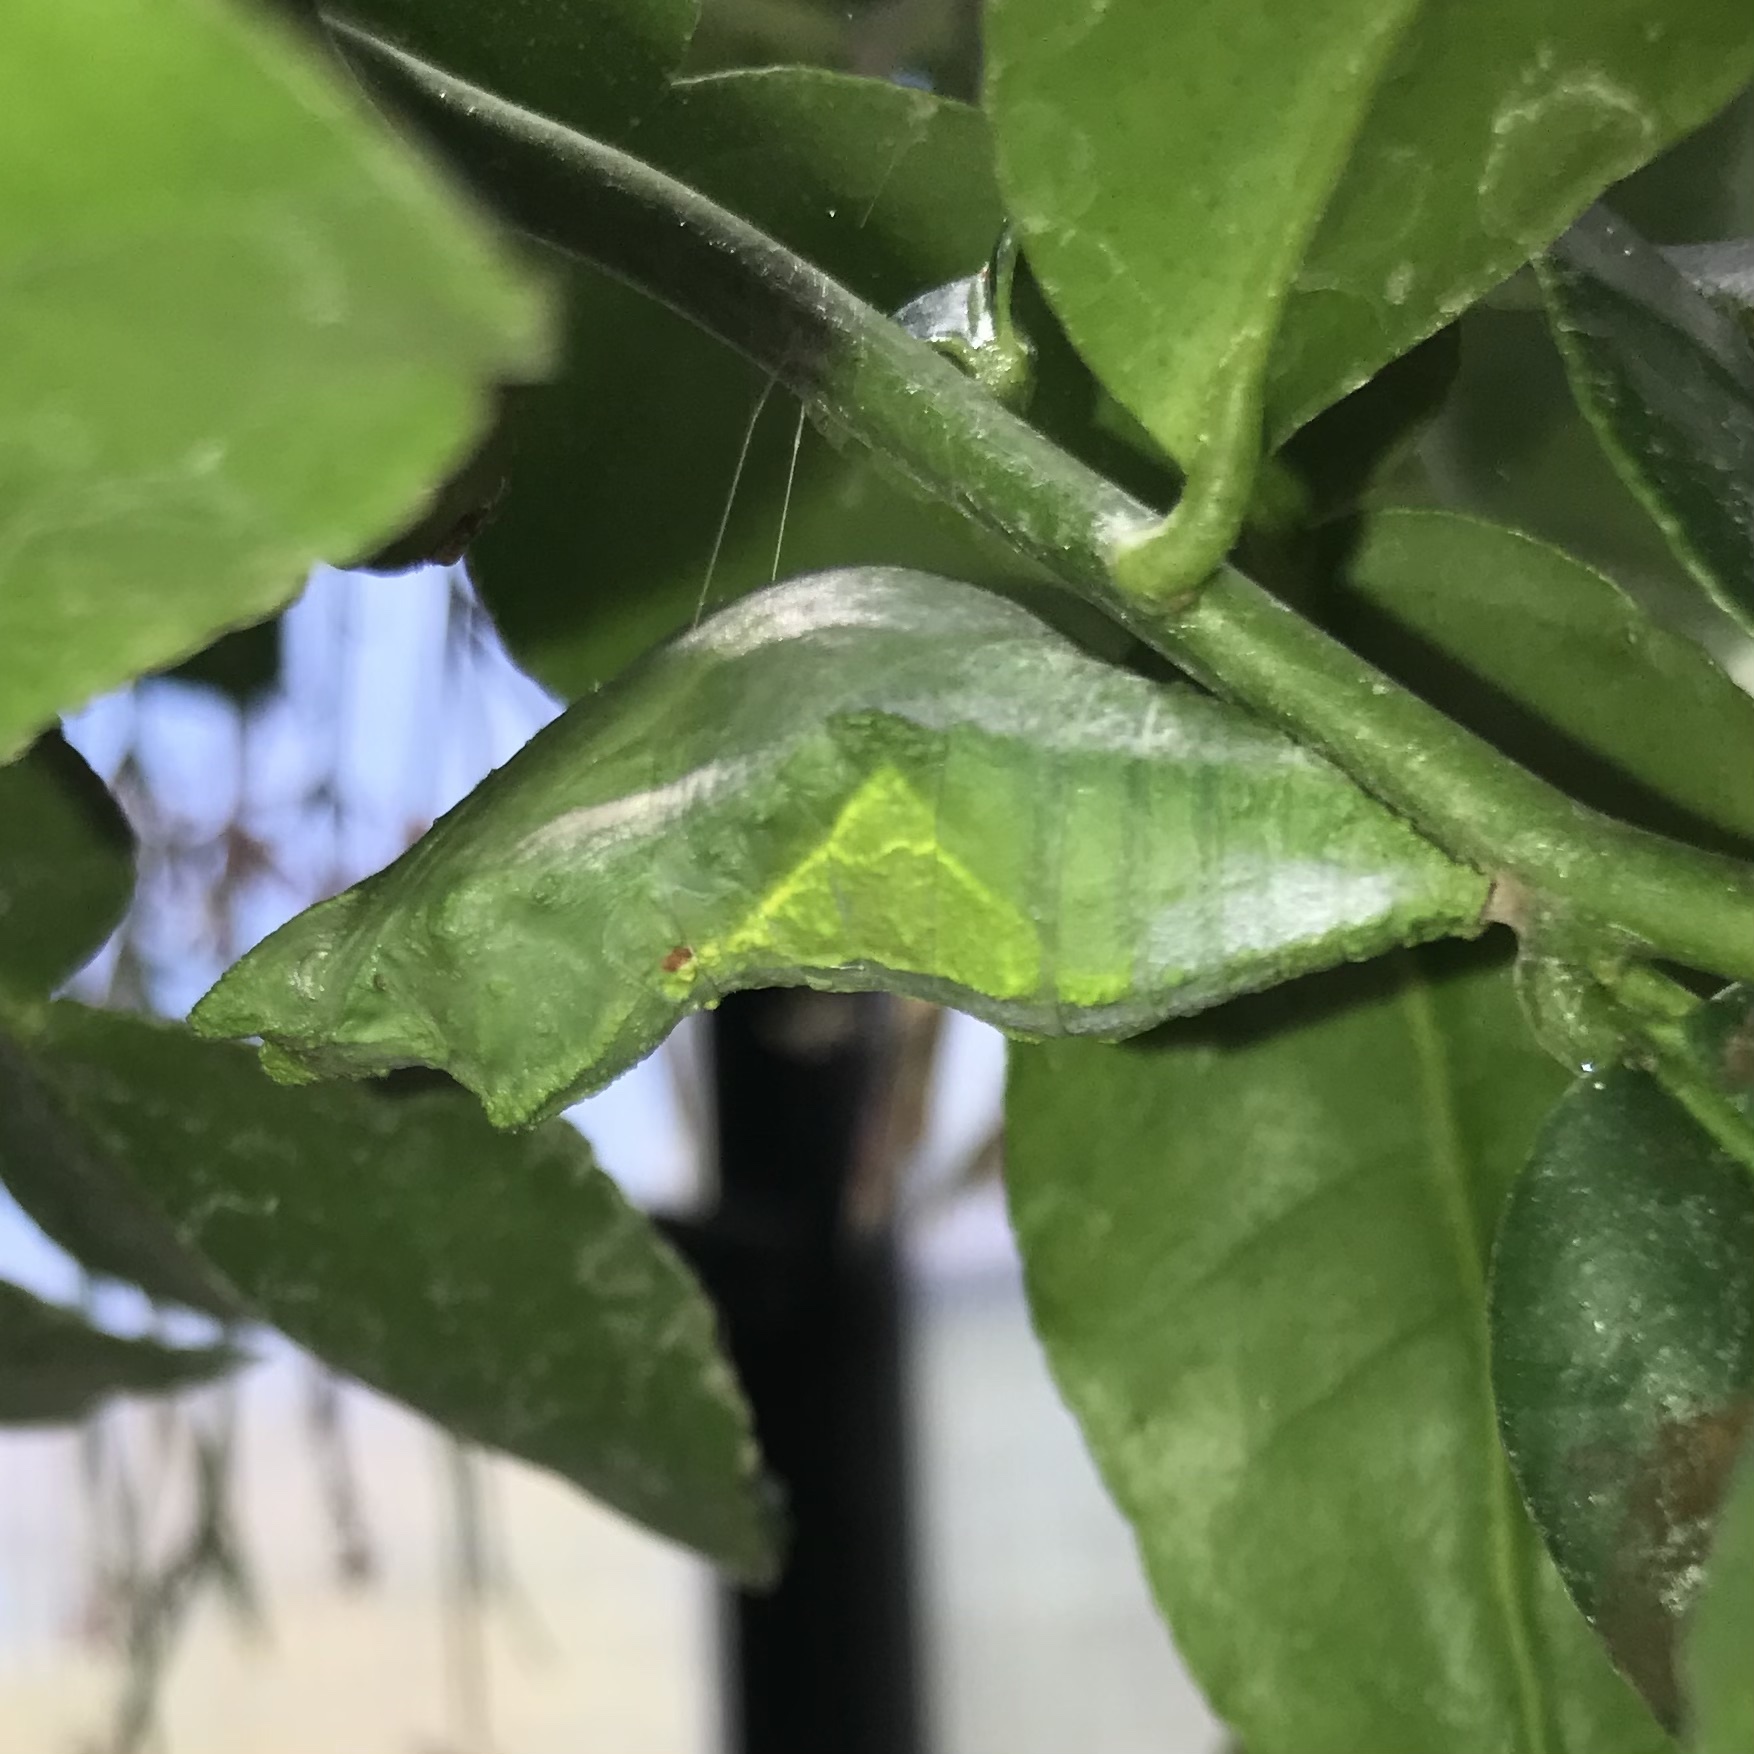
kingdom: Animalia
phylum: Arthropoda
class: Insecta
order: Lepidoptera
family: Papilionidae
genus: Papilio
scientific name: Papilio aegeus
